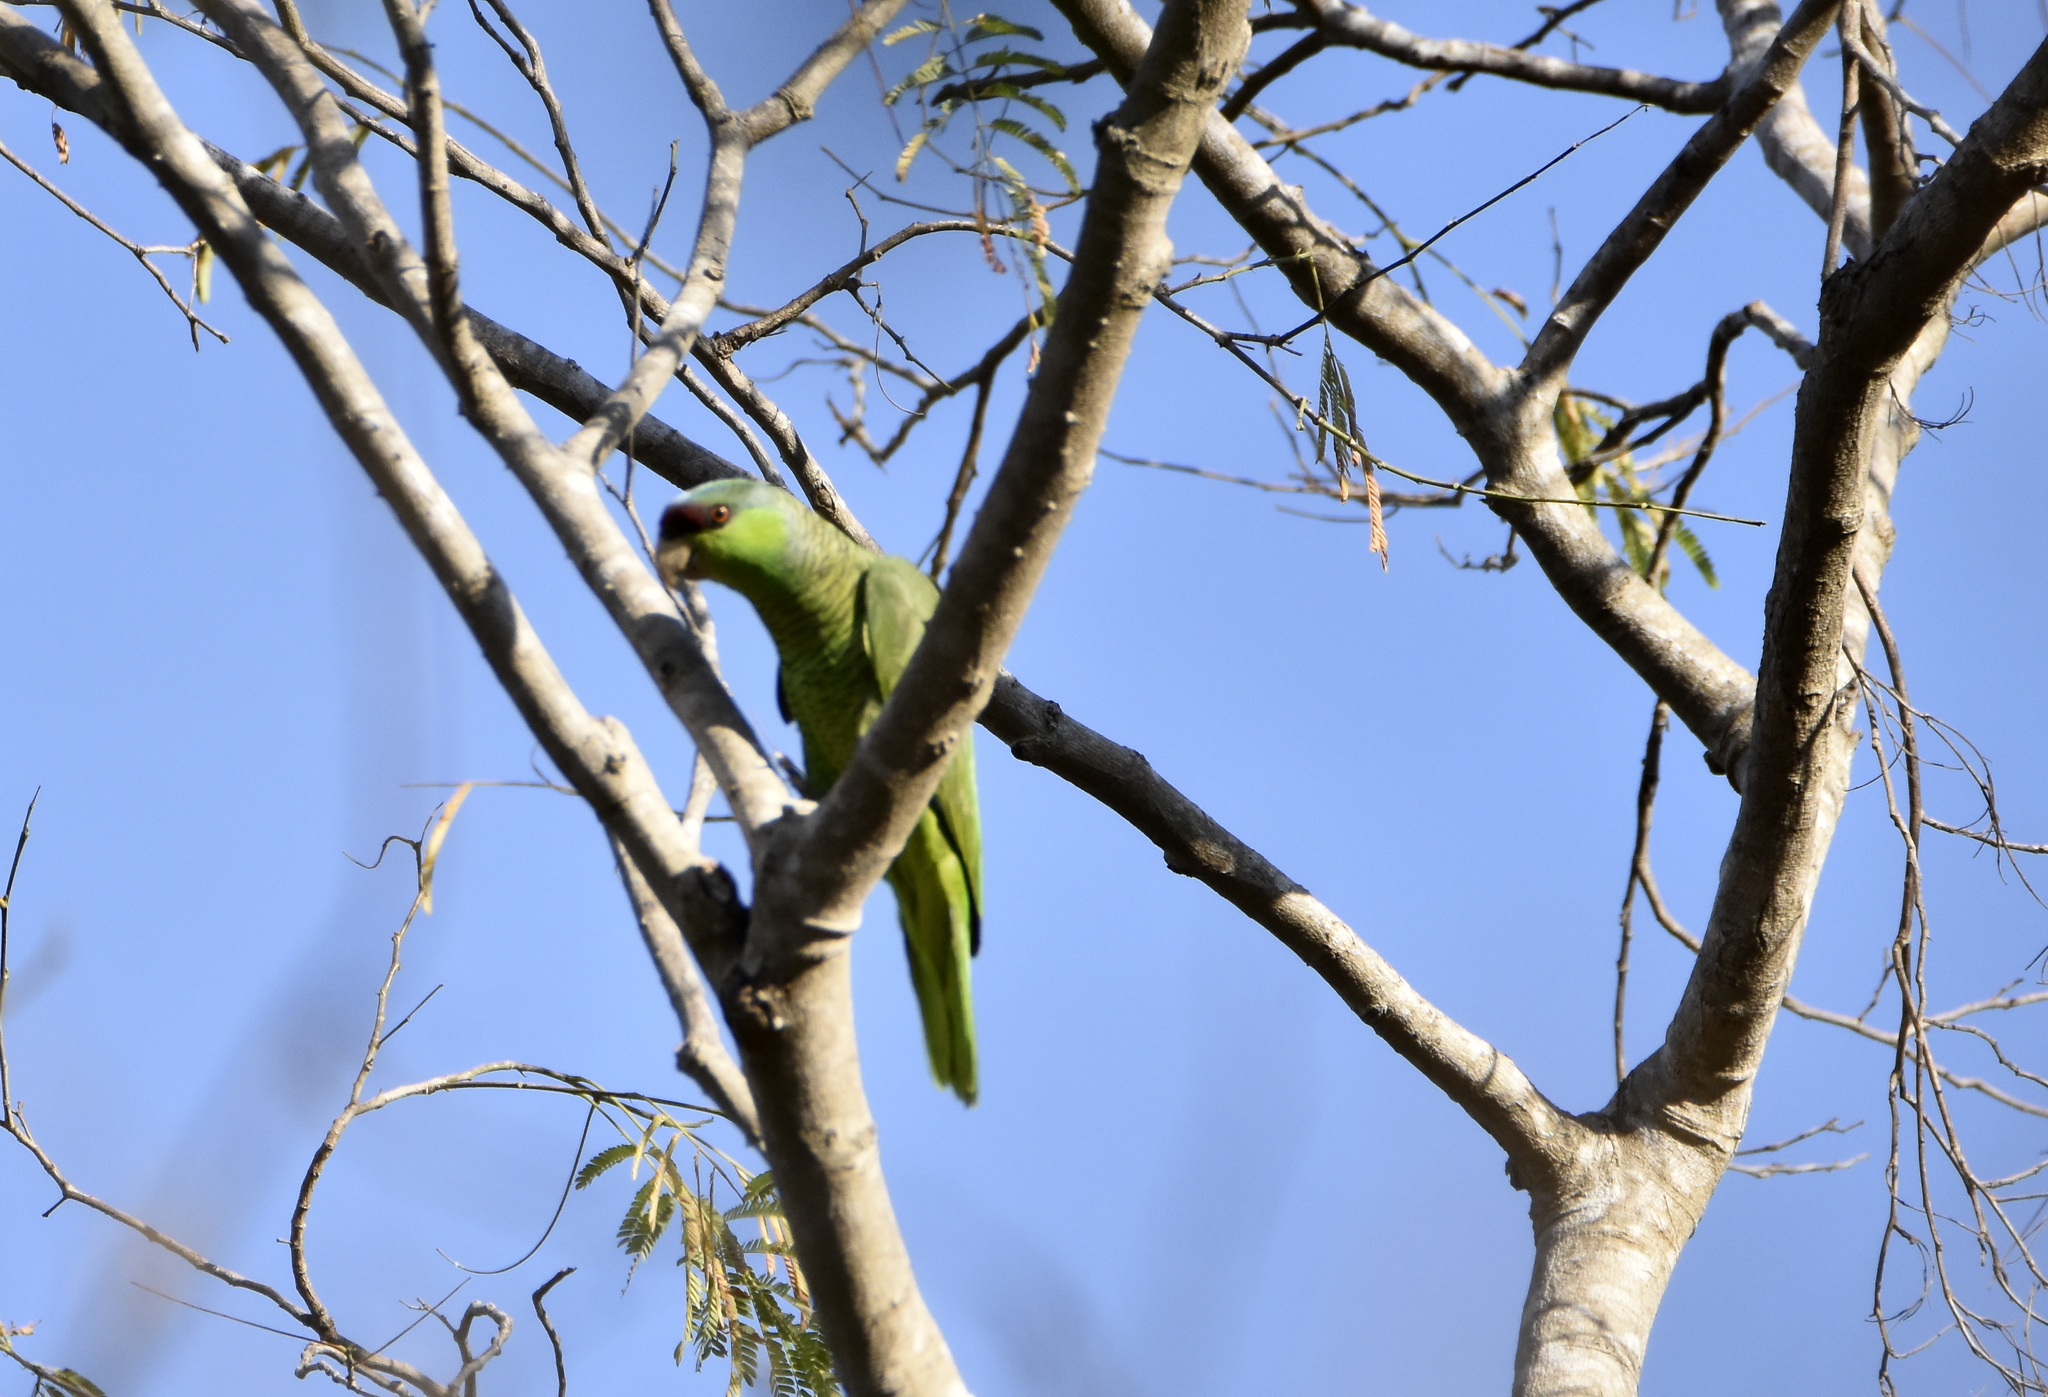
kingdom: Animalia
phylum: Chordata
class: Aves
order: Psittaciformes
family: Psittacidae
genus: Amazona
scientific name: Amazona finschi
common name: Lilac-crowned amazon
